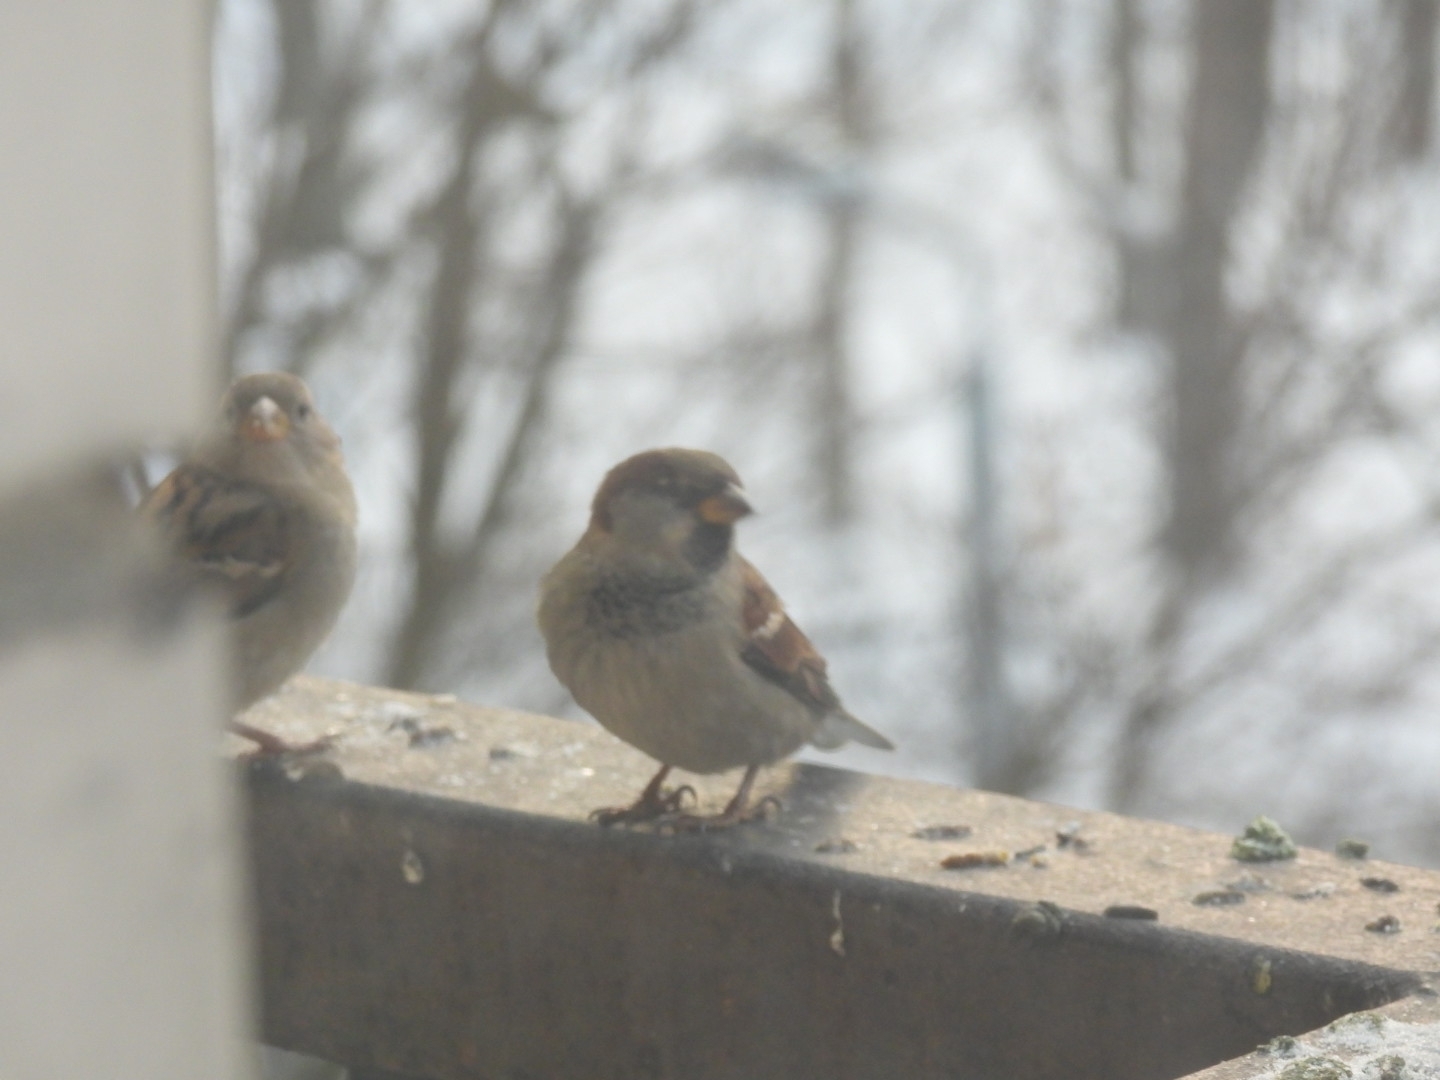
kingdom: Animalia
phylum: Chordata
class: Aves
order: Passeriformes
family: Passeridae
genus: Passer
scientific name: Passer domesticus
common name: House sparrow
